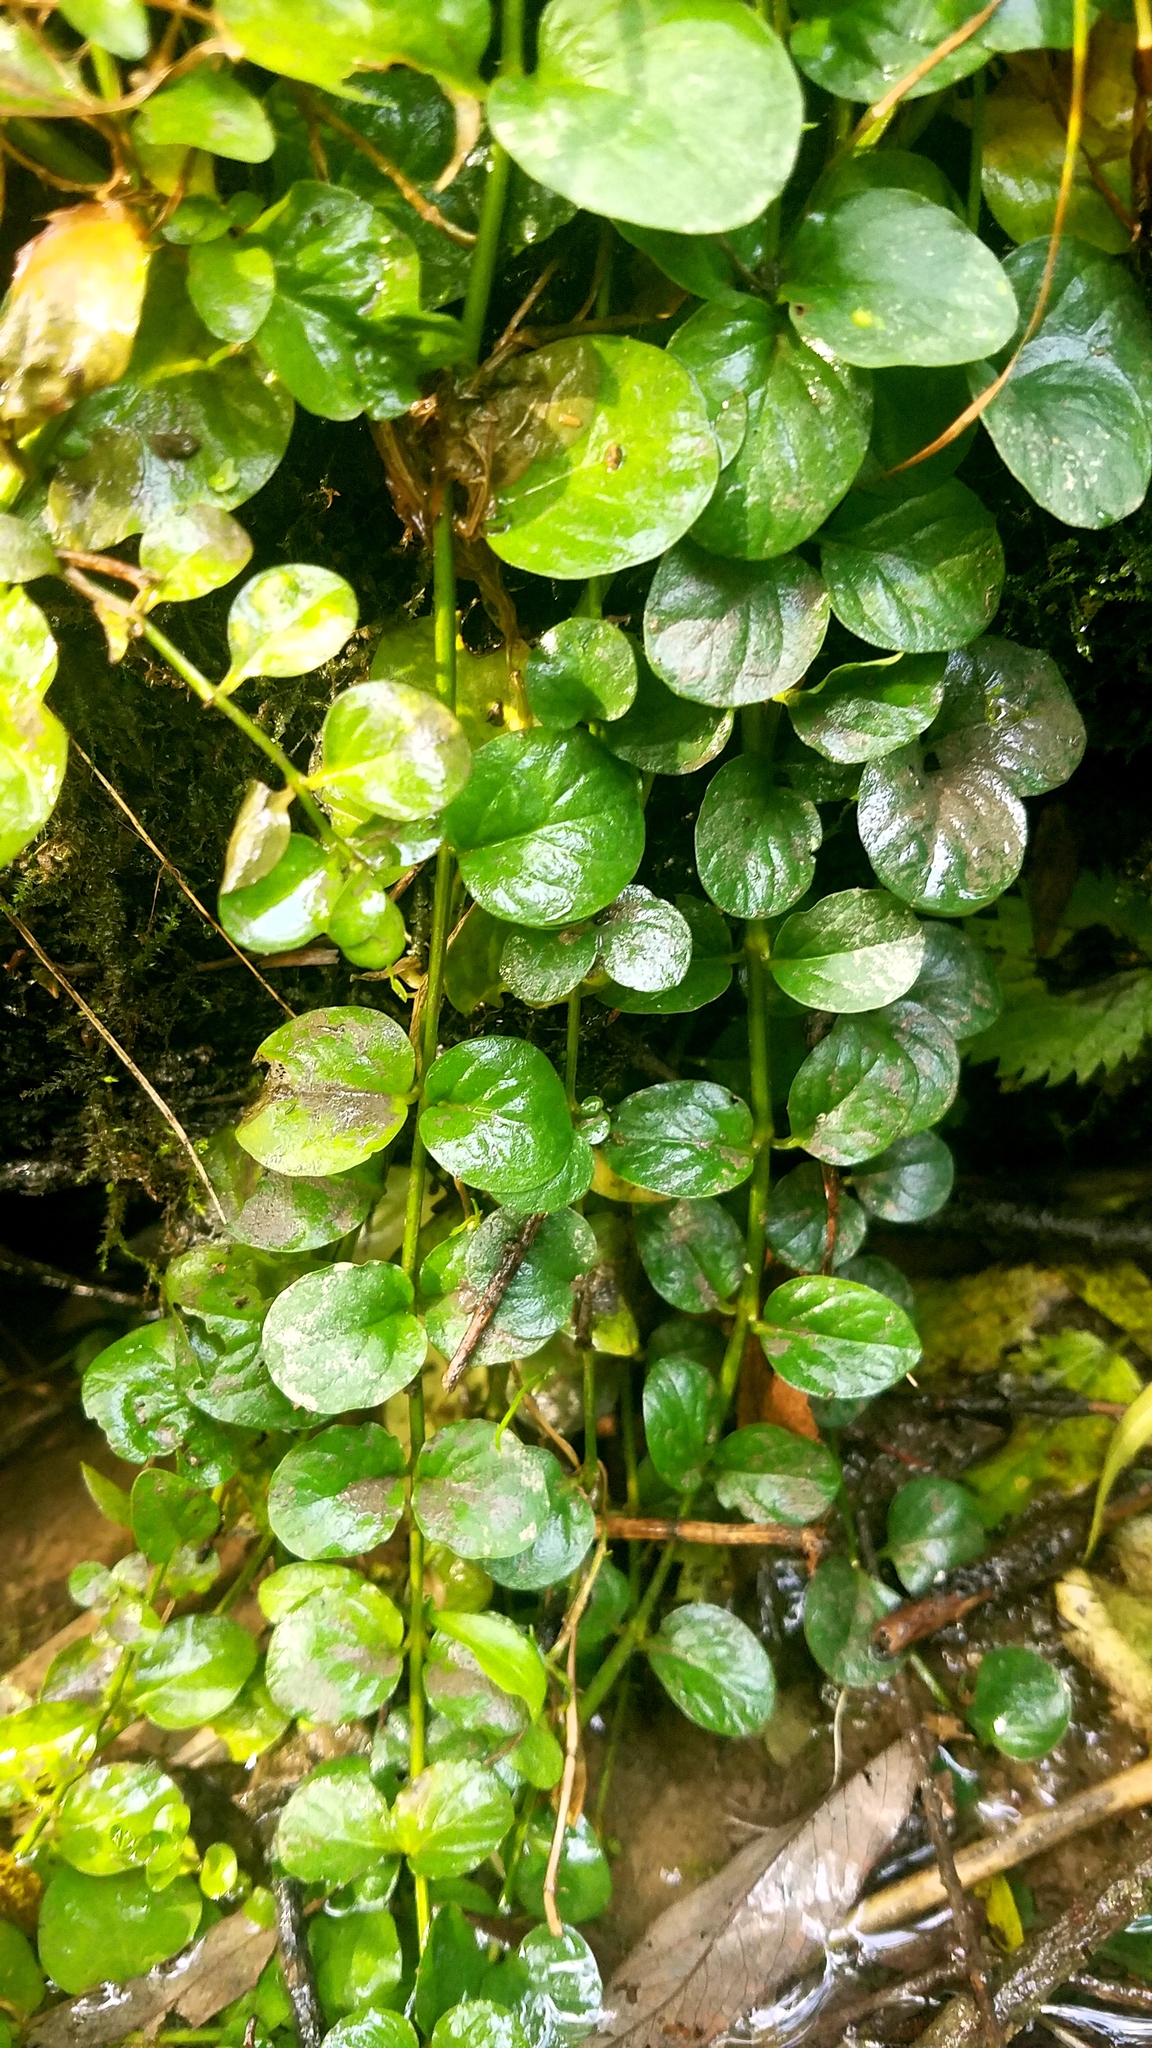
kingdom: Plantae
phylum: Tracheophyta
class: Magnoliopsida
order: Ericales
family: Primulaceae
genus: Lysimachia
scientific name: Lysimachia nummularia
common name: Moneywort
